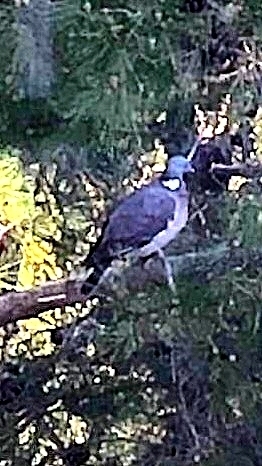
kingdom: Animalia
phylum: Chordata
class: Aves
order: Columbiformes
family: Columbidae
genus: Columba
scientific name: Columba palumbus
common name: Common wood pigeon
